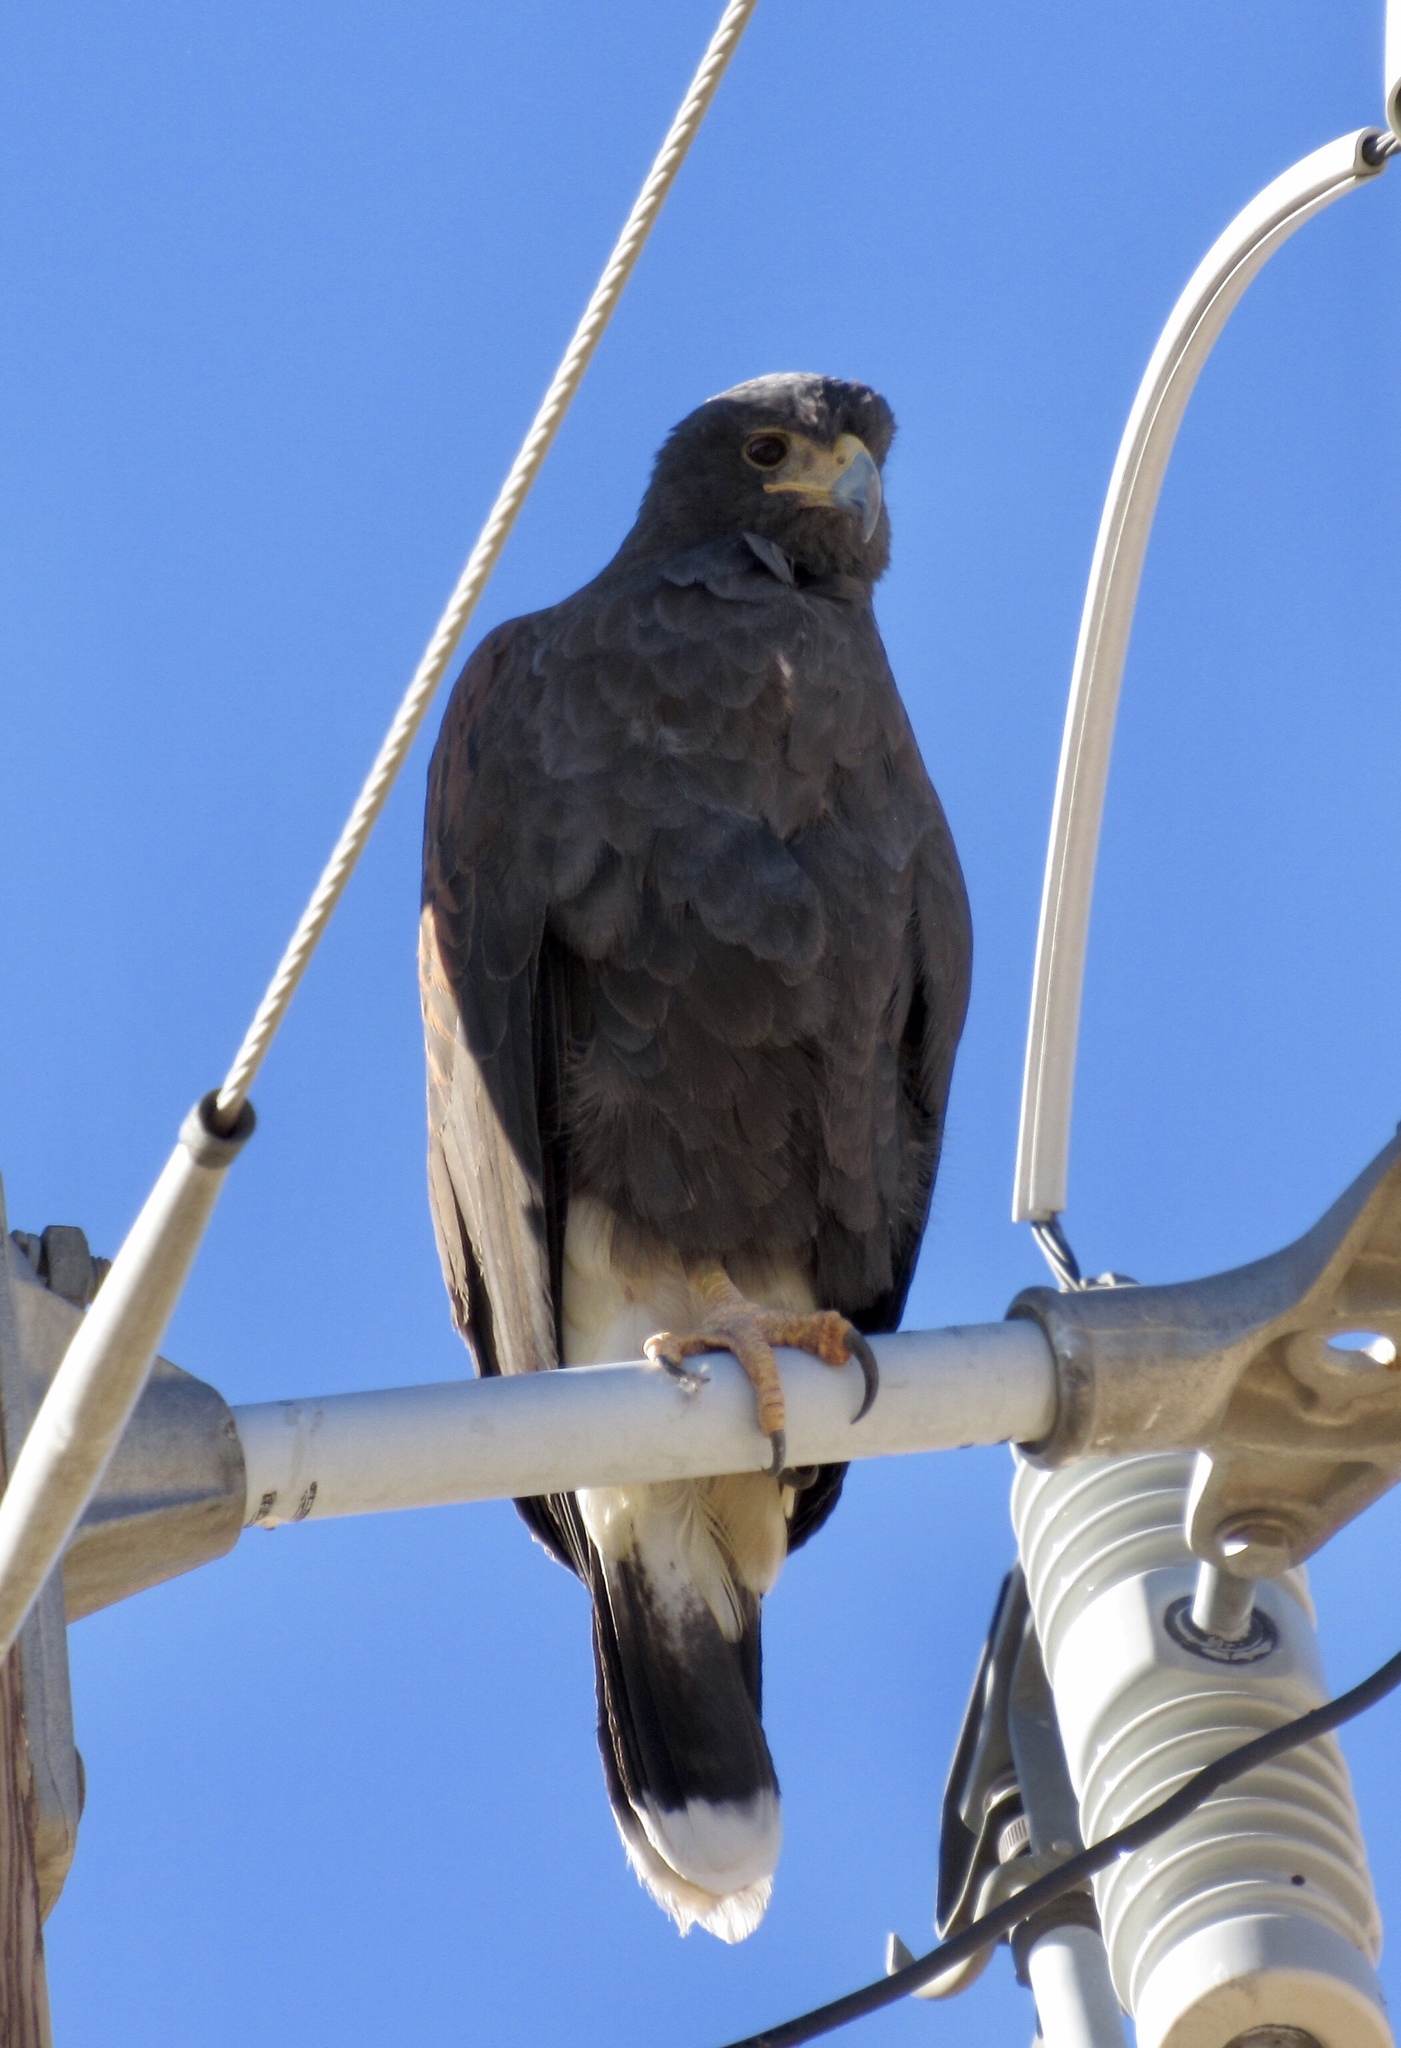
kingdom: Animalia
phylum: Chordata
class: Aves
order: Accipitriformes
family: Accipitridae
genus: Parabuteo
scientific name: Parabuteo unicinctus
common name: Harris's hawk
